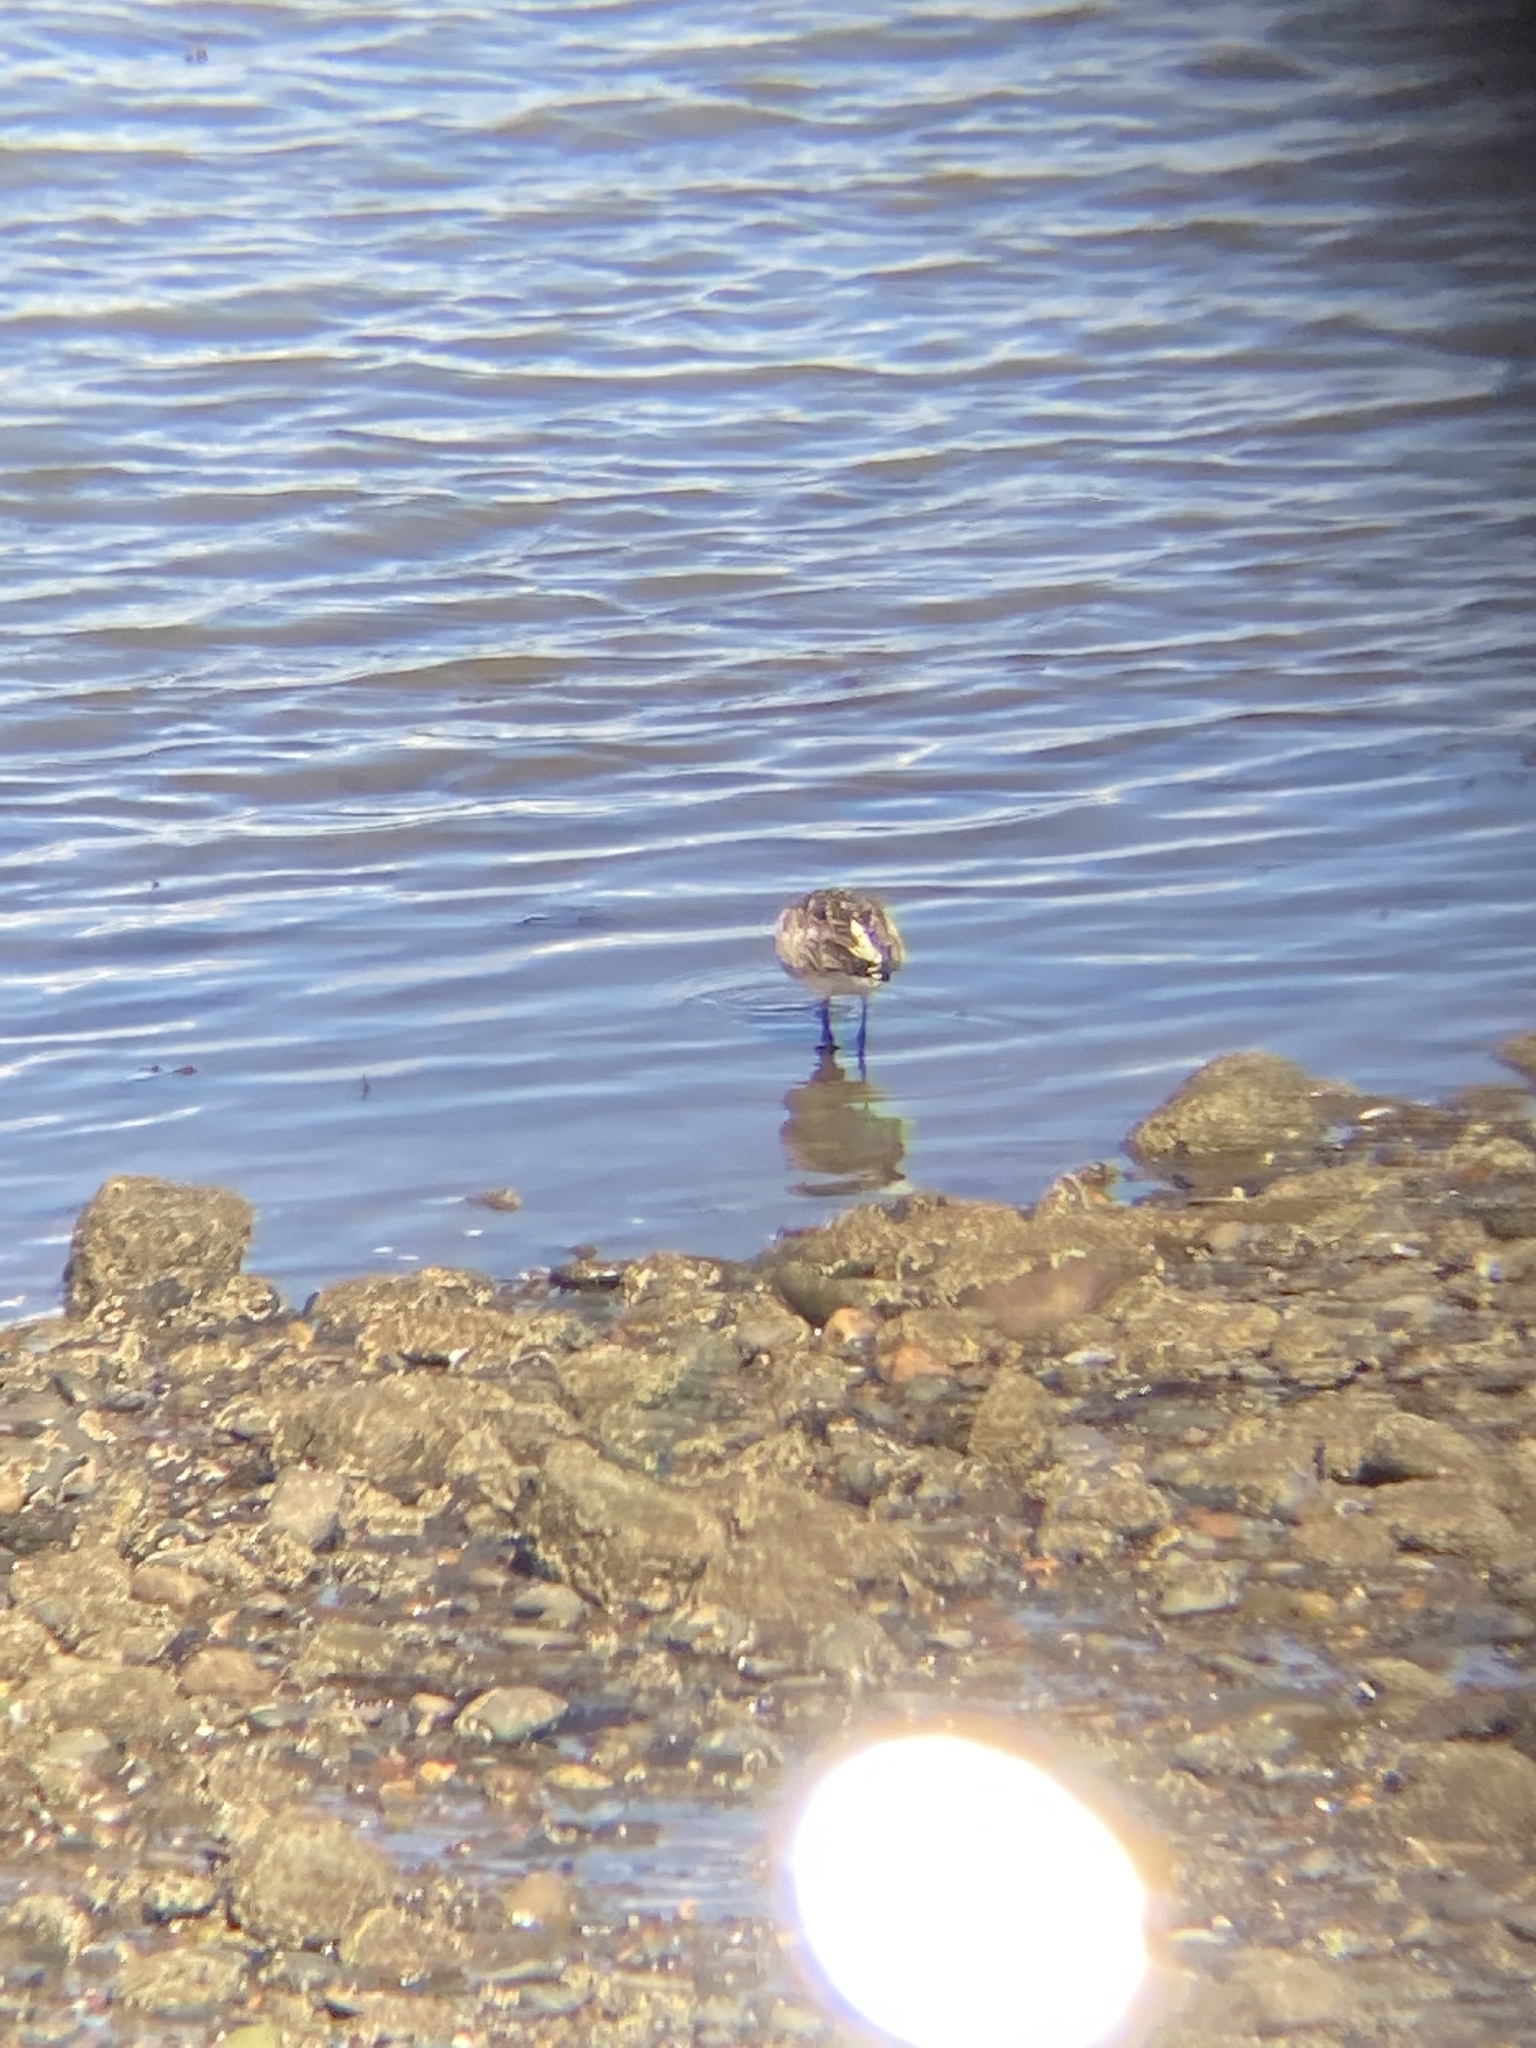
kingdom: Animalia
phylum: Chordata
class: Aves
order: Charadriiformes
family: Scolopacidae
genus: Limosa
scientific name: Limosa lapponica
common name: Bar-tailed godwit
